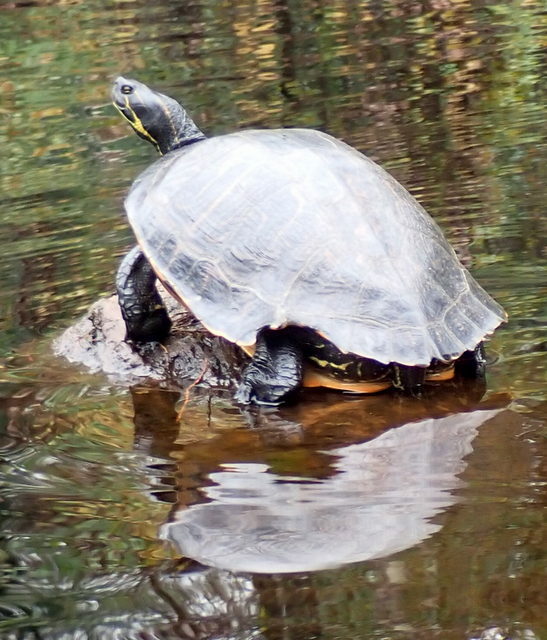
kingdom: Animalia
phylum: Chordata
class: Testudines
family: Emydidae
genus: Pseudemys
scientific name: Pseudemys concinna
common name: Eastern river cooter
